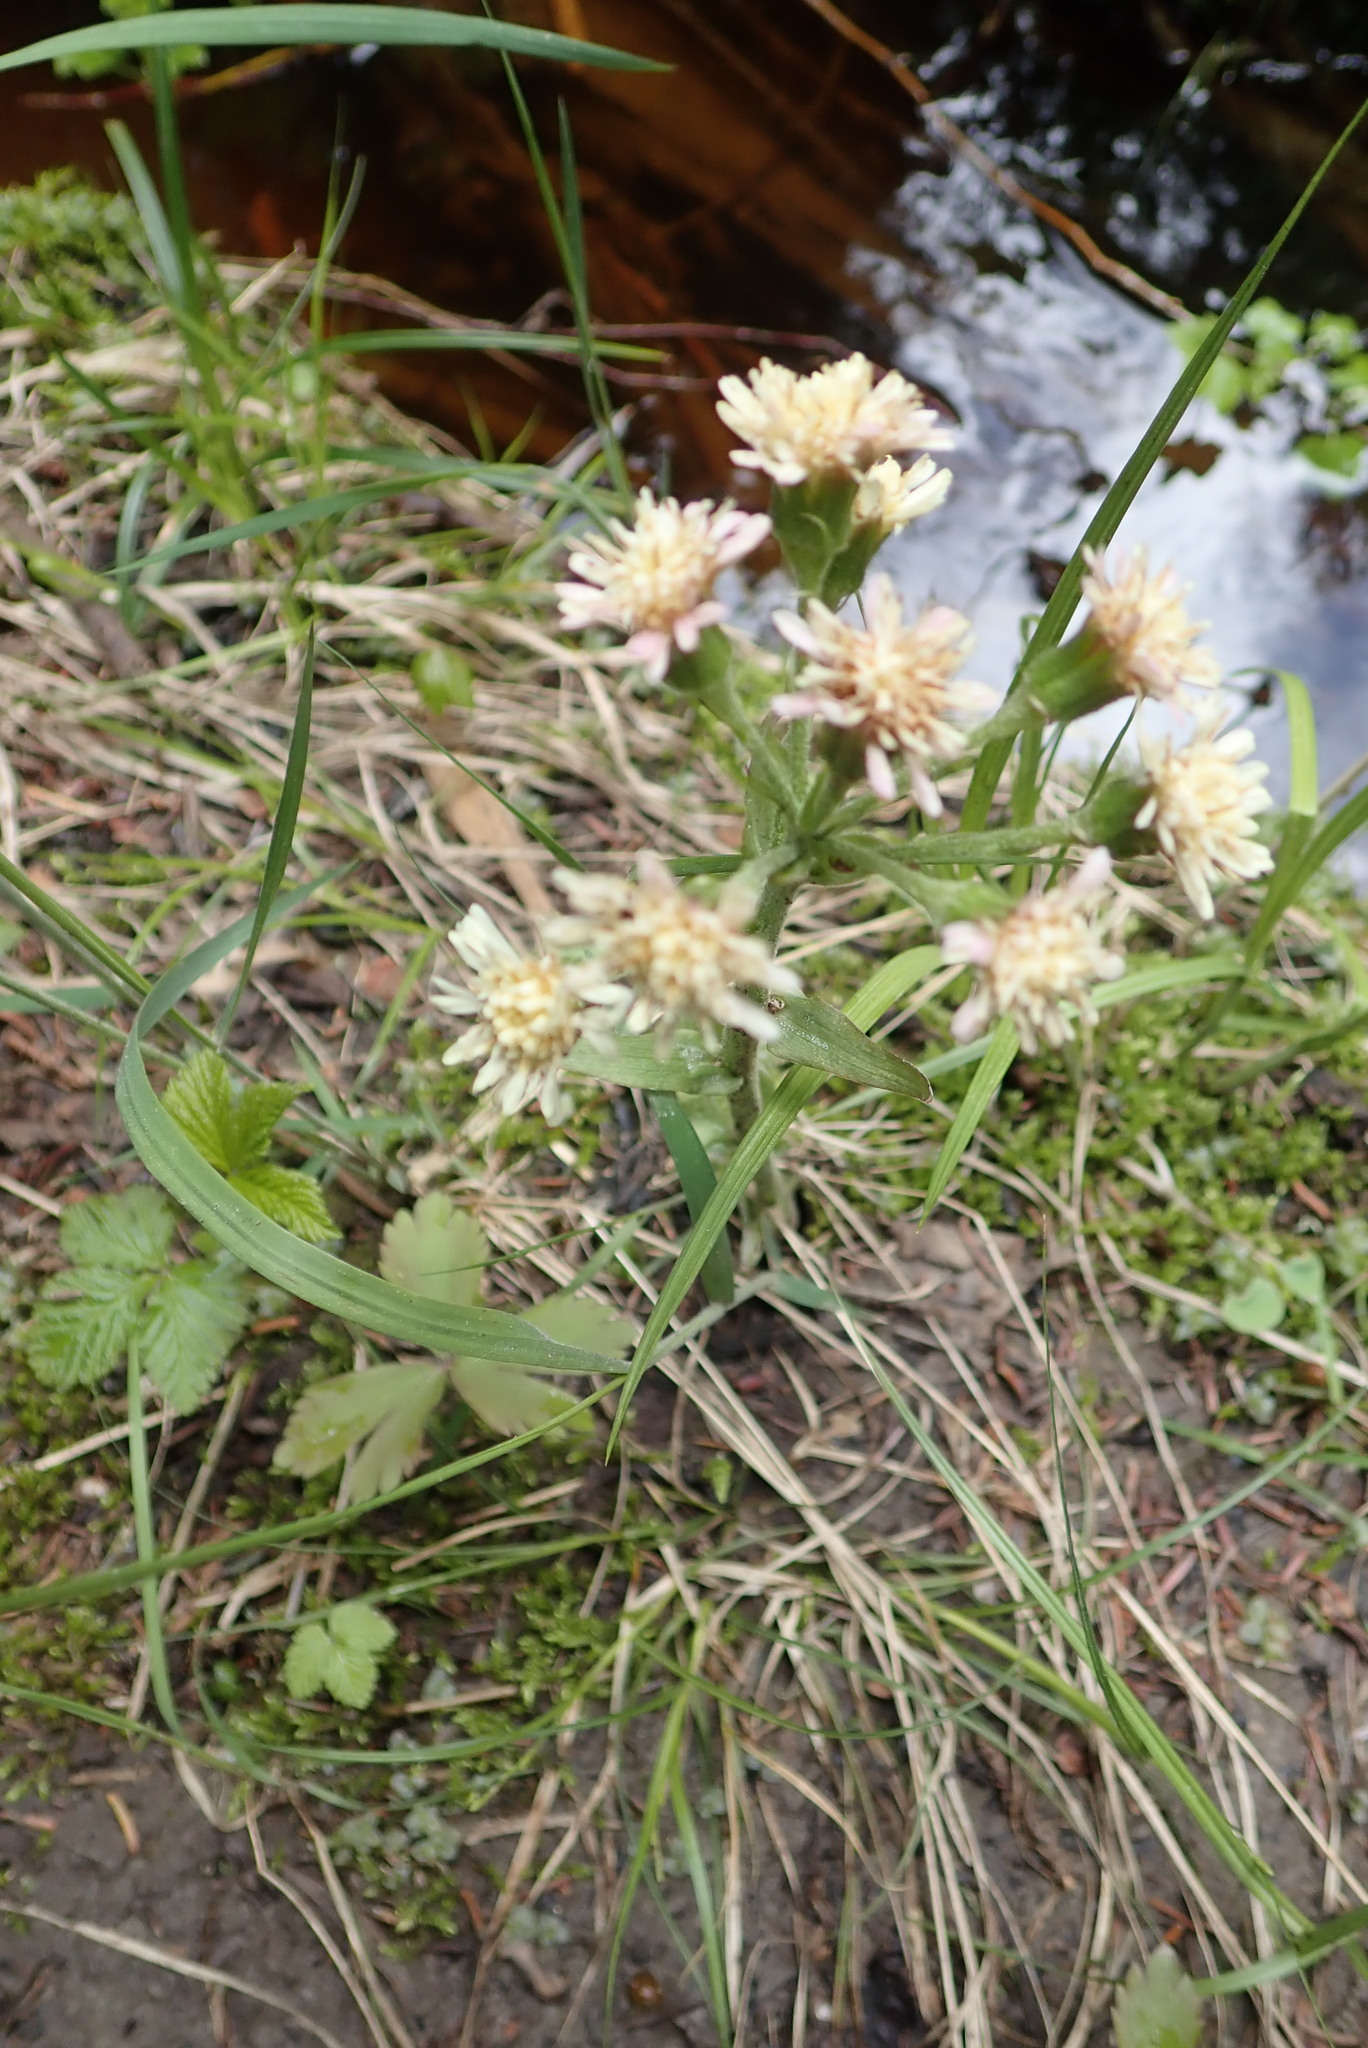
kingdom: Plantae
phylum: Tracheophyta
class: Magnoliopsida
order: Asterales
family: Asteraceae
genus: Petasites
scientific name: Petasites frigidus
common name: Arctic butterbur
